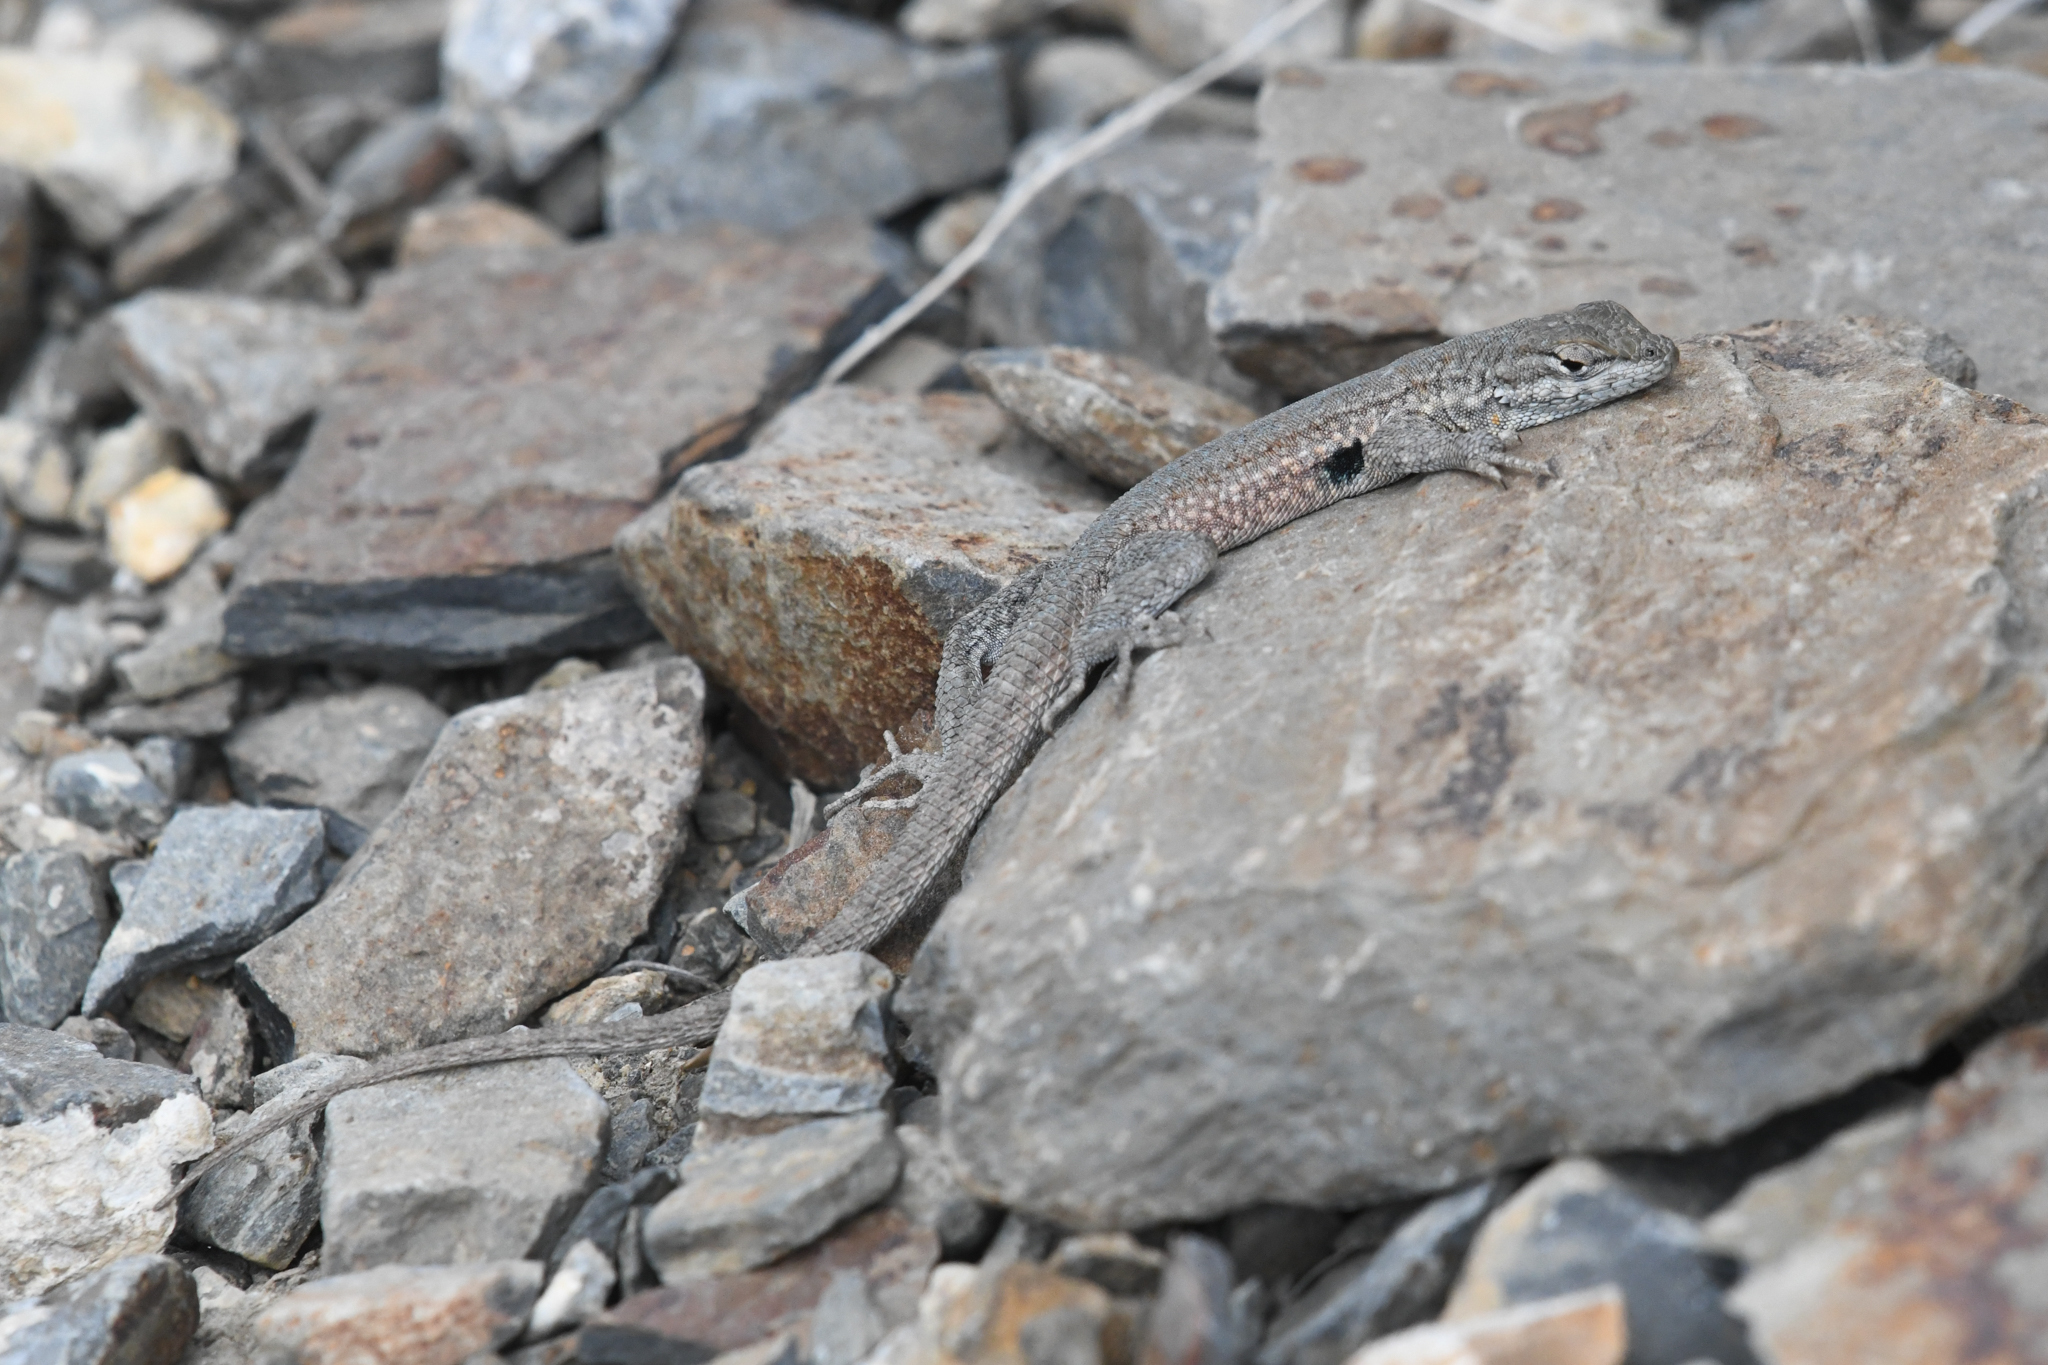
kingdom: Animalia
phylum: Chordata
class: Squamata
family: Phrynosomatidae
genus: Uta
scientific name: Uta stansburiana
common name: Side-blotched lizard
